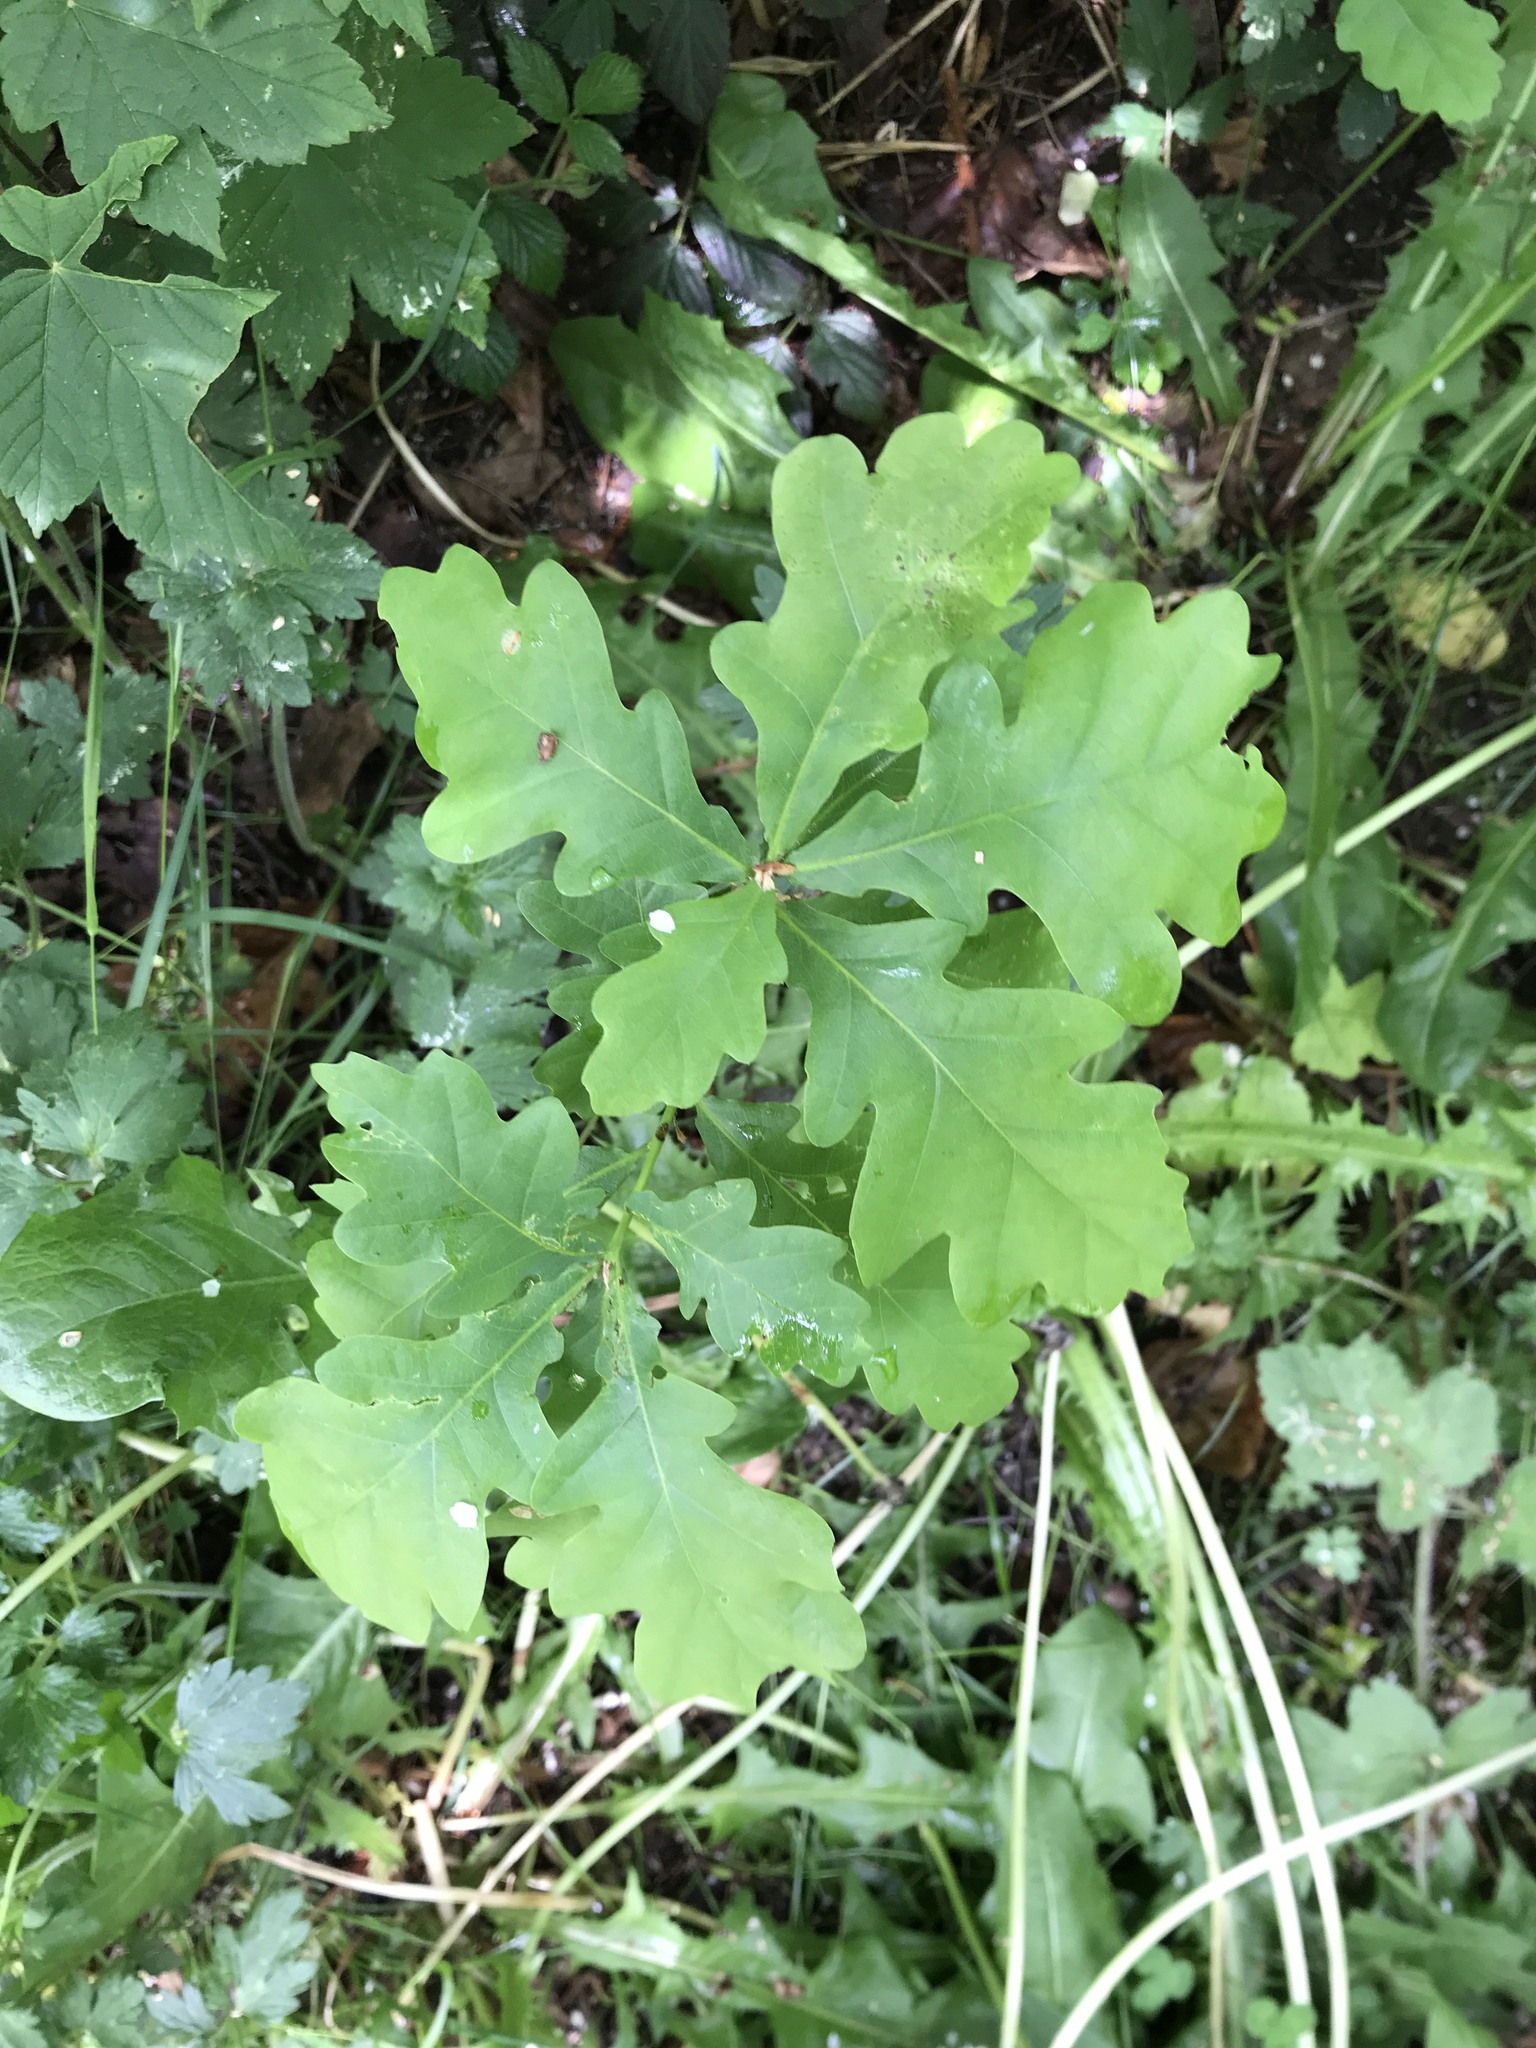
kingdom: Plantae
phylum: Tracheophyta
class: Magnoliopsida
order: Fagales
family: Fagaceae
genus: Quercus
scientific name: Quercus robur
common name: Pedunculate oak
